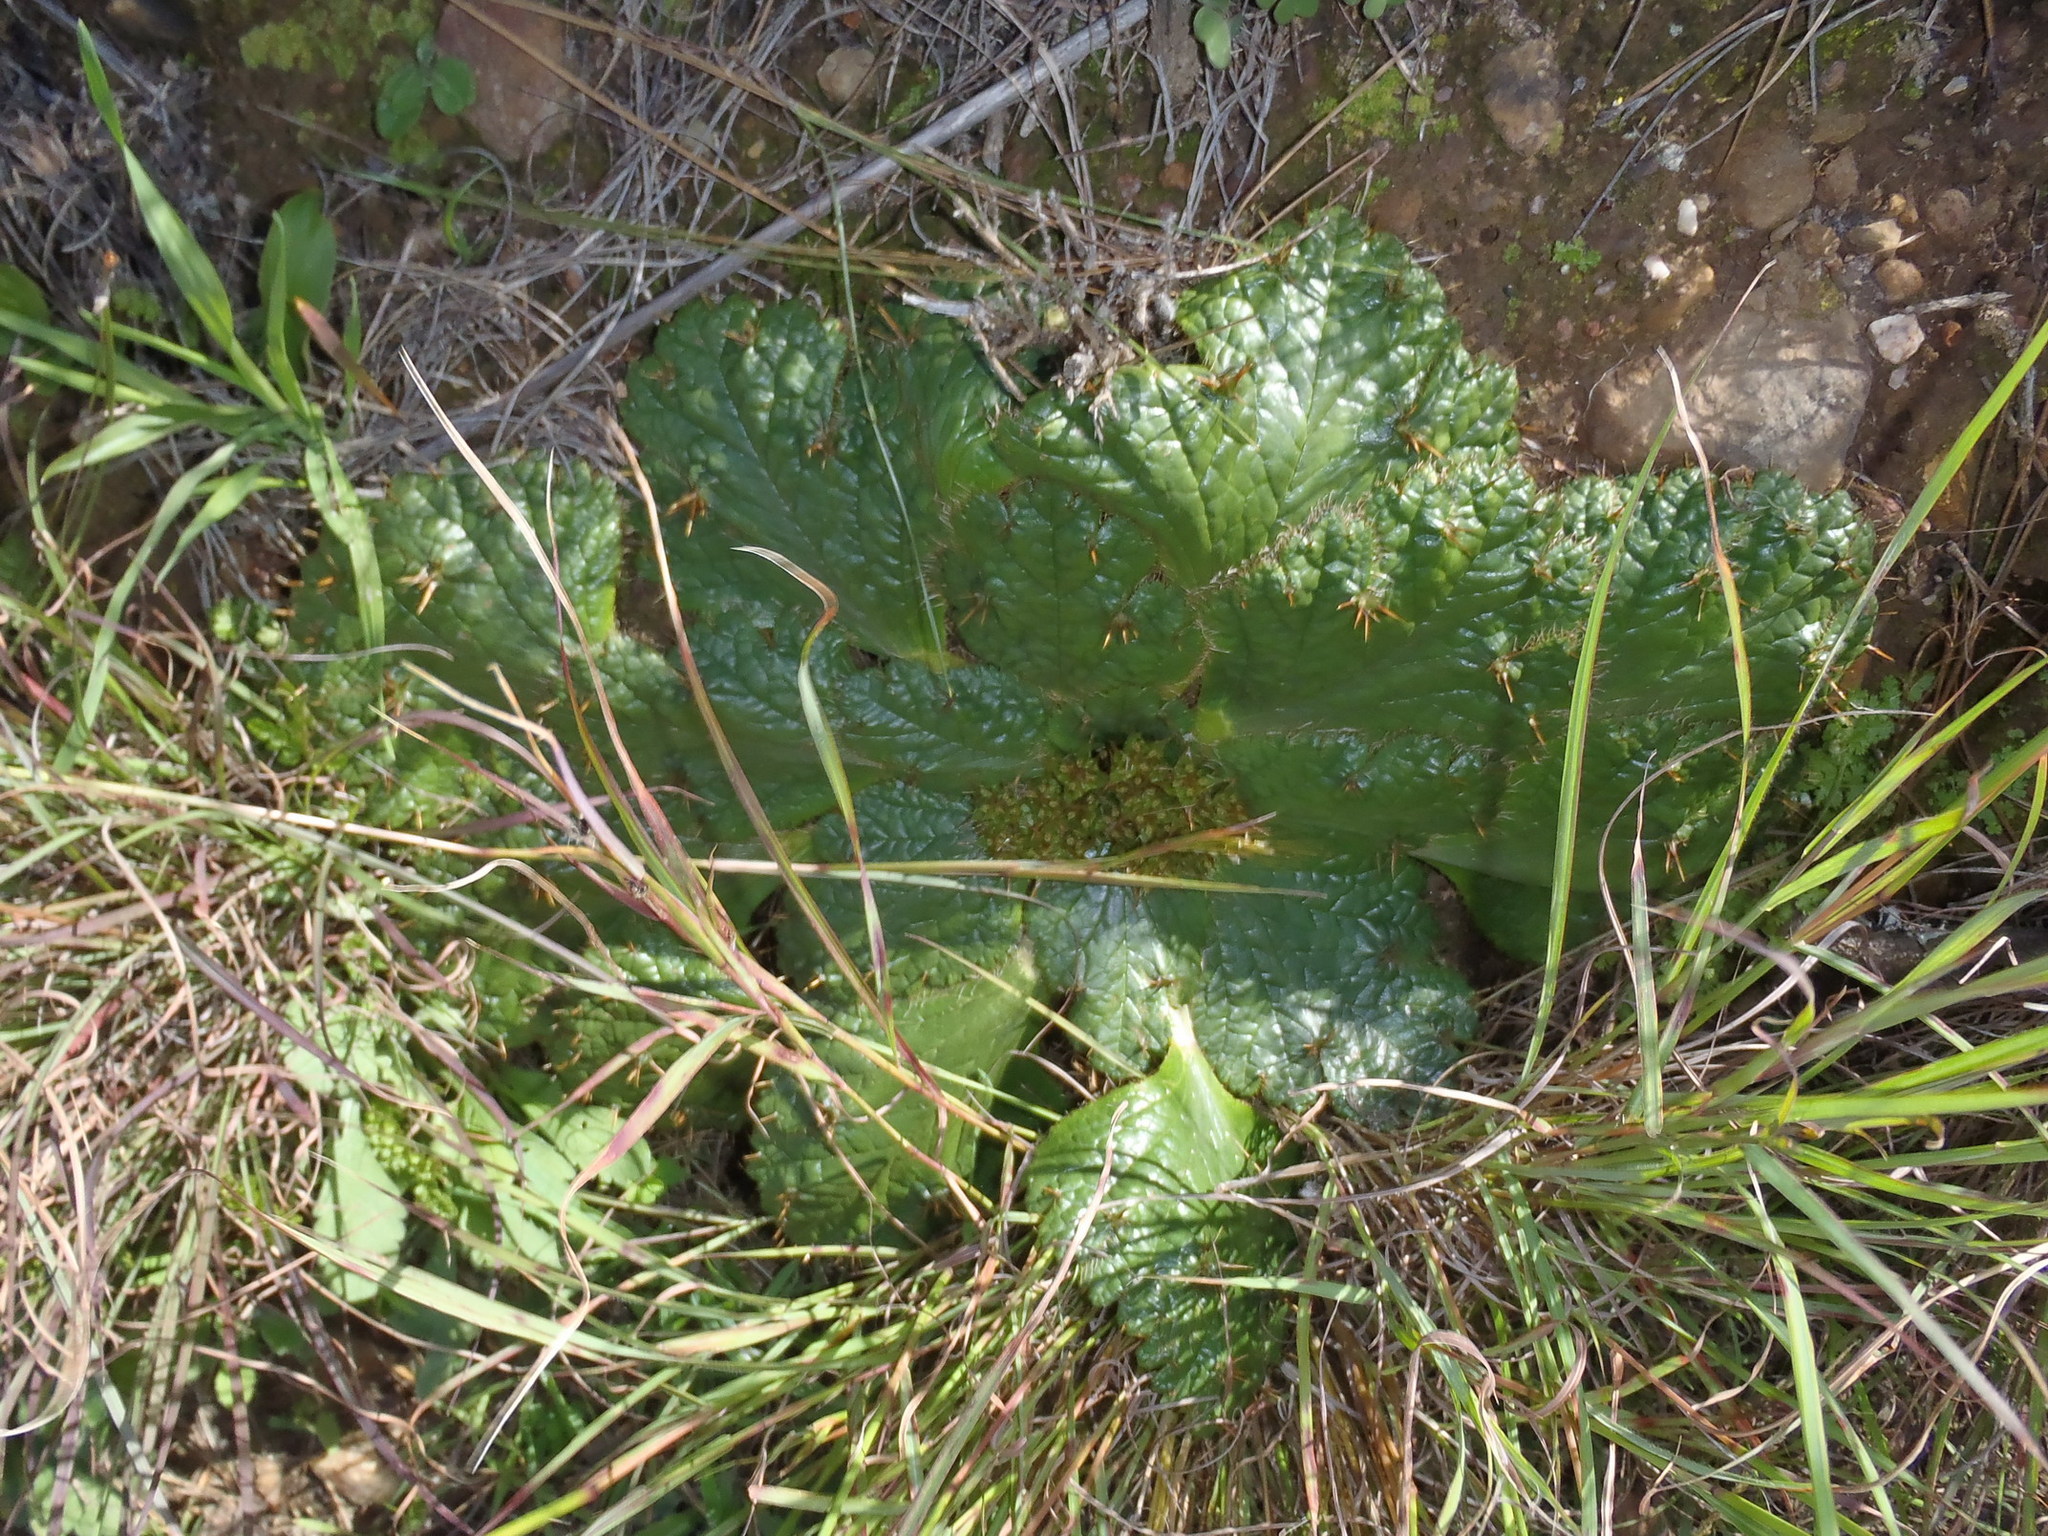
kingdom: Plantae
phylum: Tracheophyta
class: Magnoliopsida
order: Apiales
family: Apiaceae
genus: Arctopus
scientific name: Arctopus echinatus
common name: Platdoring
